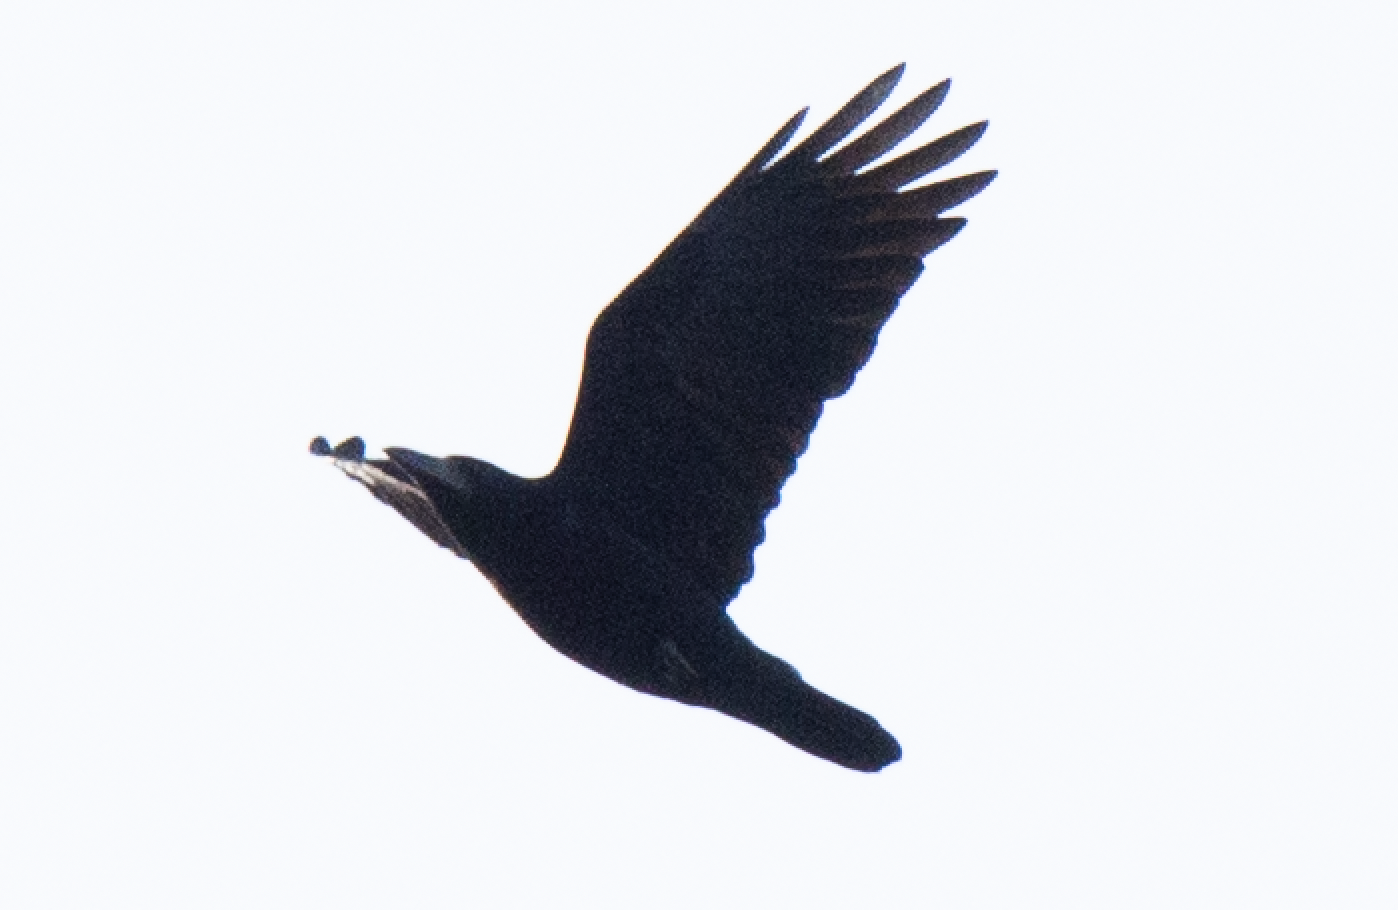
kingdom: Animalia
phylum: Chordata
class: Aves
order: Passeriformes
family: Corvidae
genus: Corvus
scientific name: Corvus corone
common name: Carrion crow
